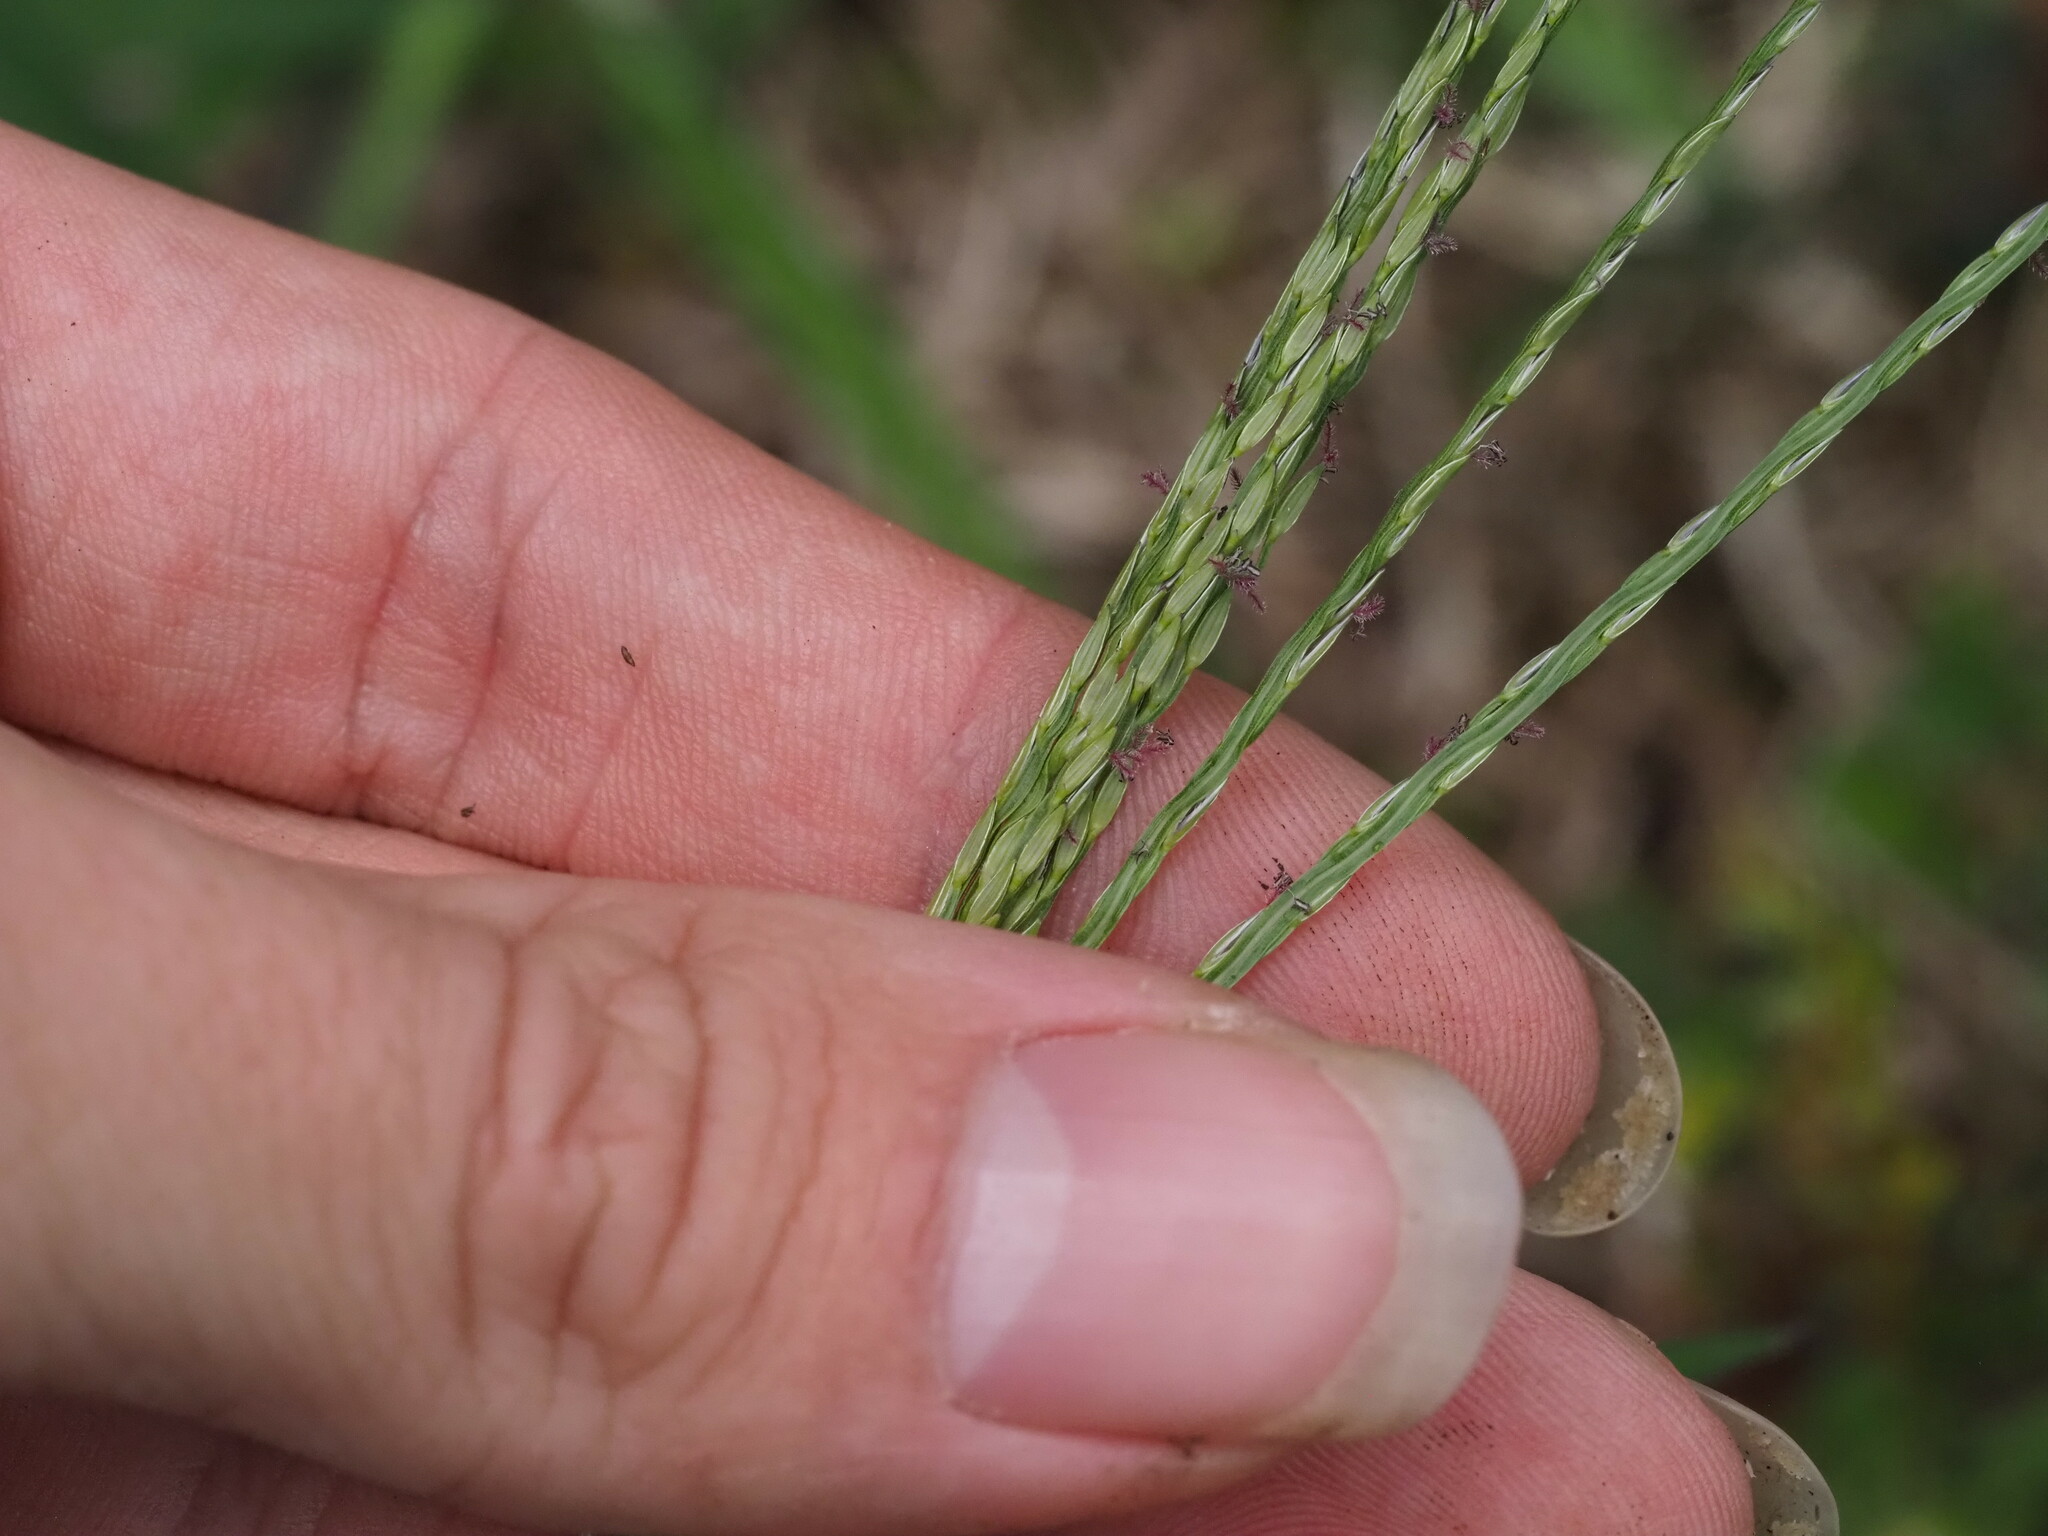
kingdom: Plantae
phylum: Tracheophyta
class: Liliopsida
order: Poales
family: Poaceae
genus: Digitaria
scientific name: Digitaria ciliaris
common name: Tropical finger-grass
